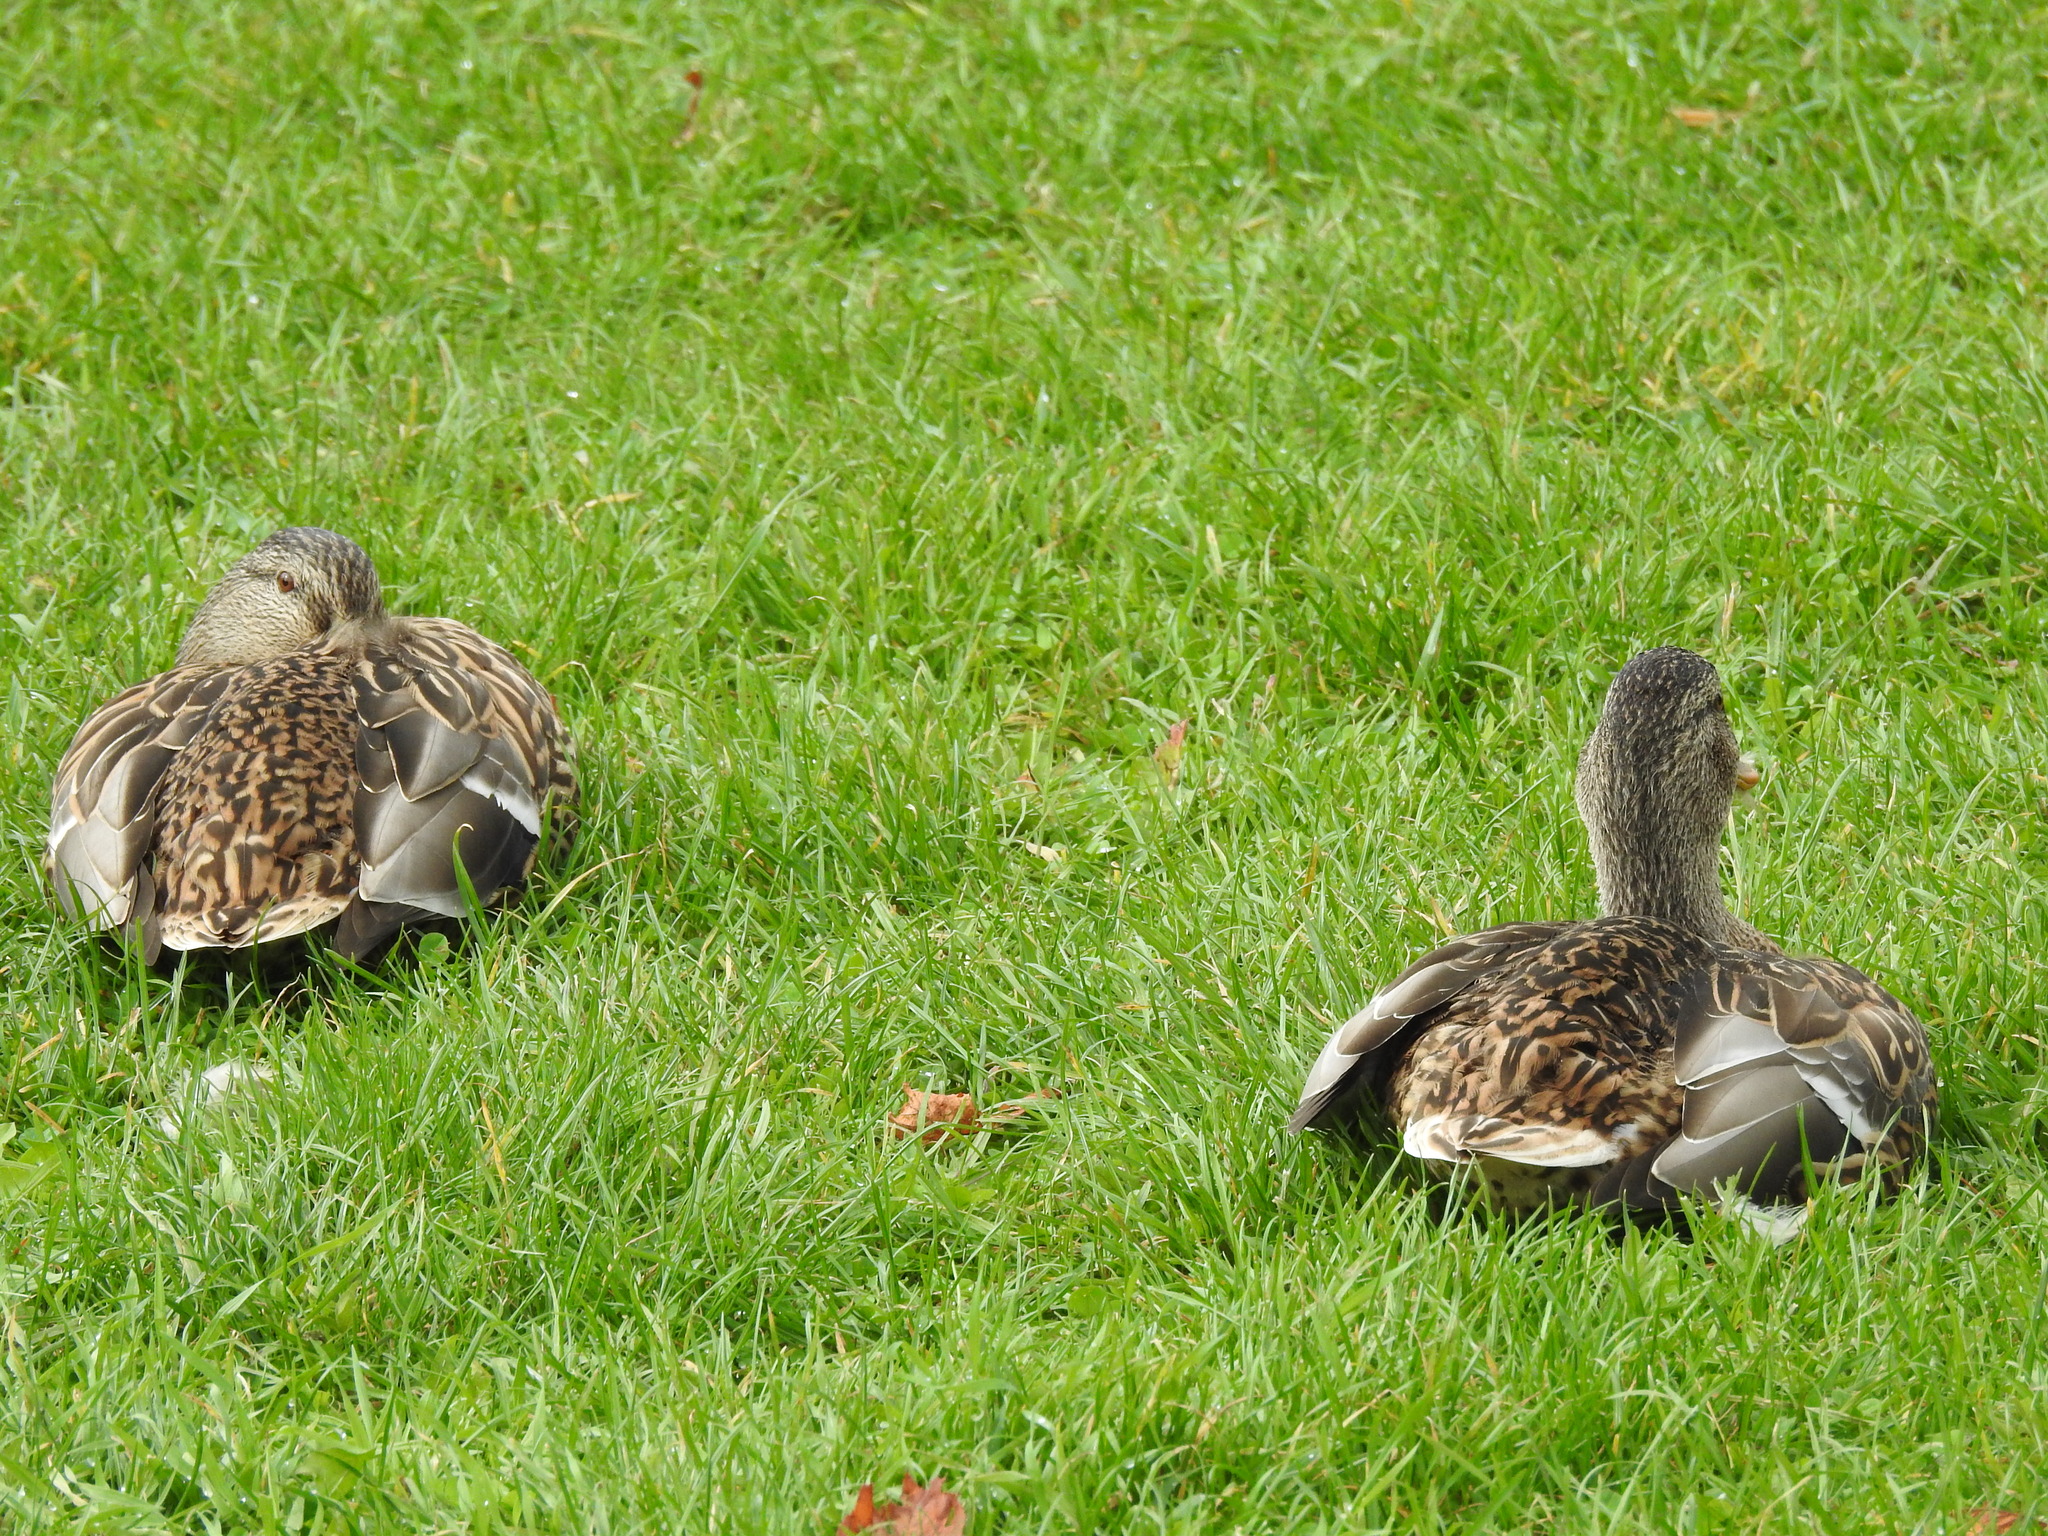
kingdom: Animalia
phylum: Chordata
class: Aves
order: Anseriformes
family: Anatidae
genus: Anas
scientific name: Anas platyrhynchos
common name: Mallard
